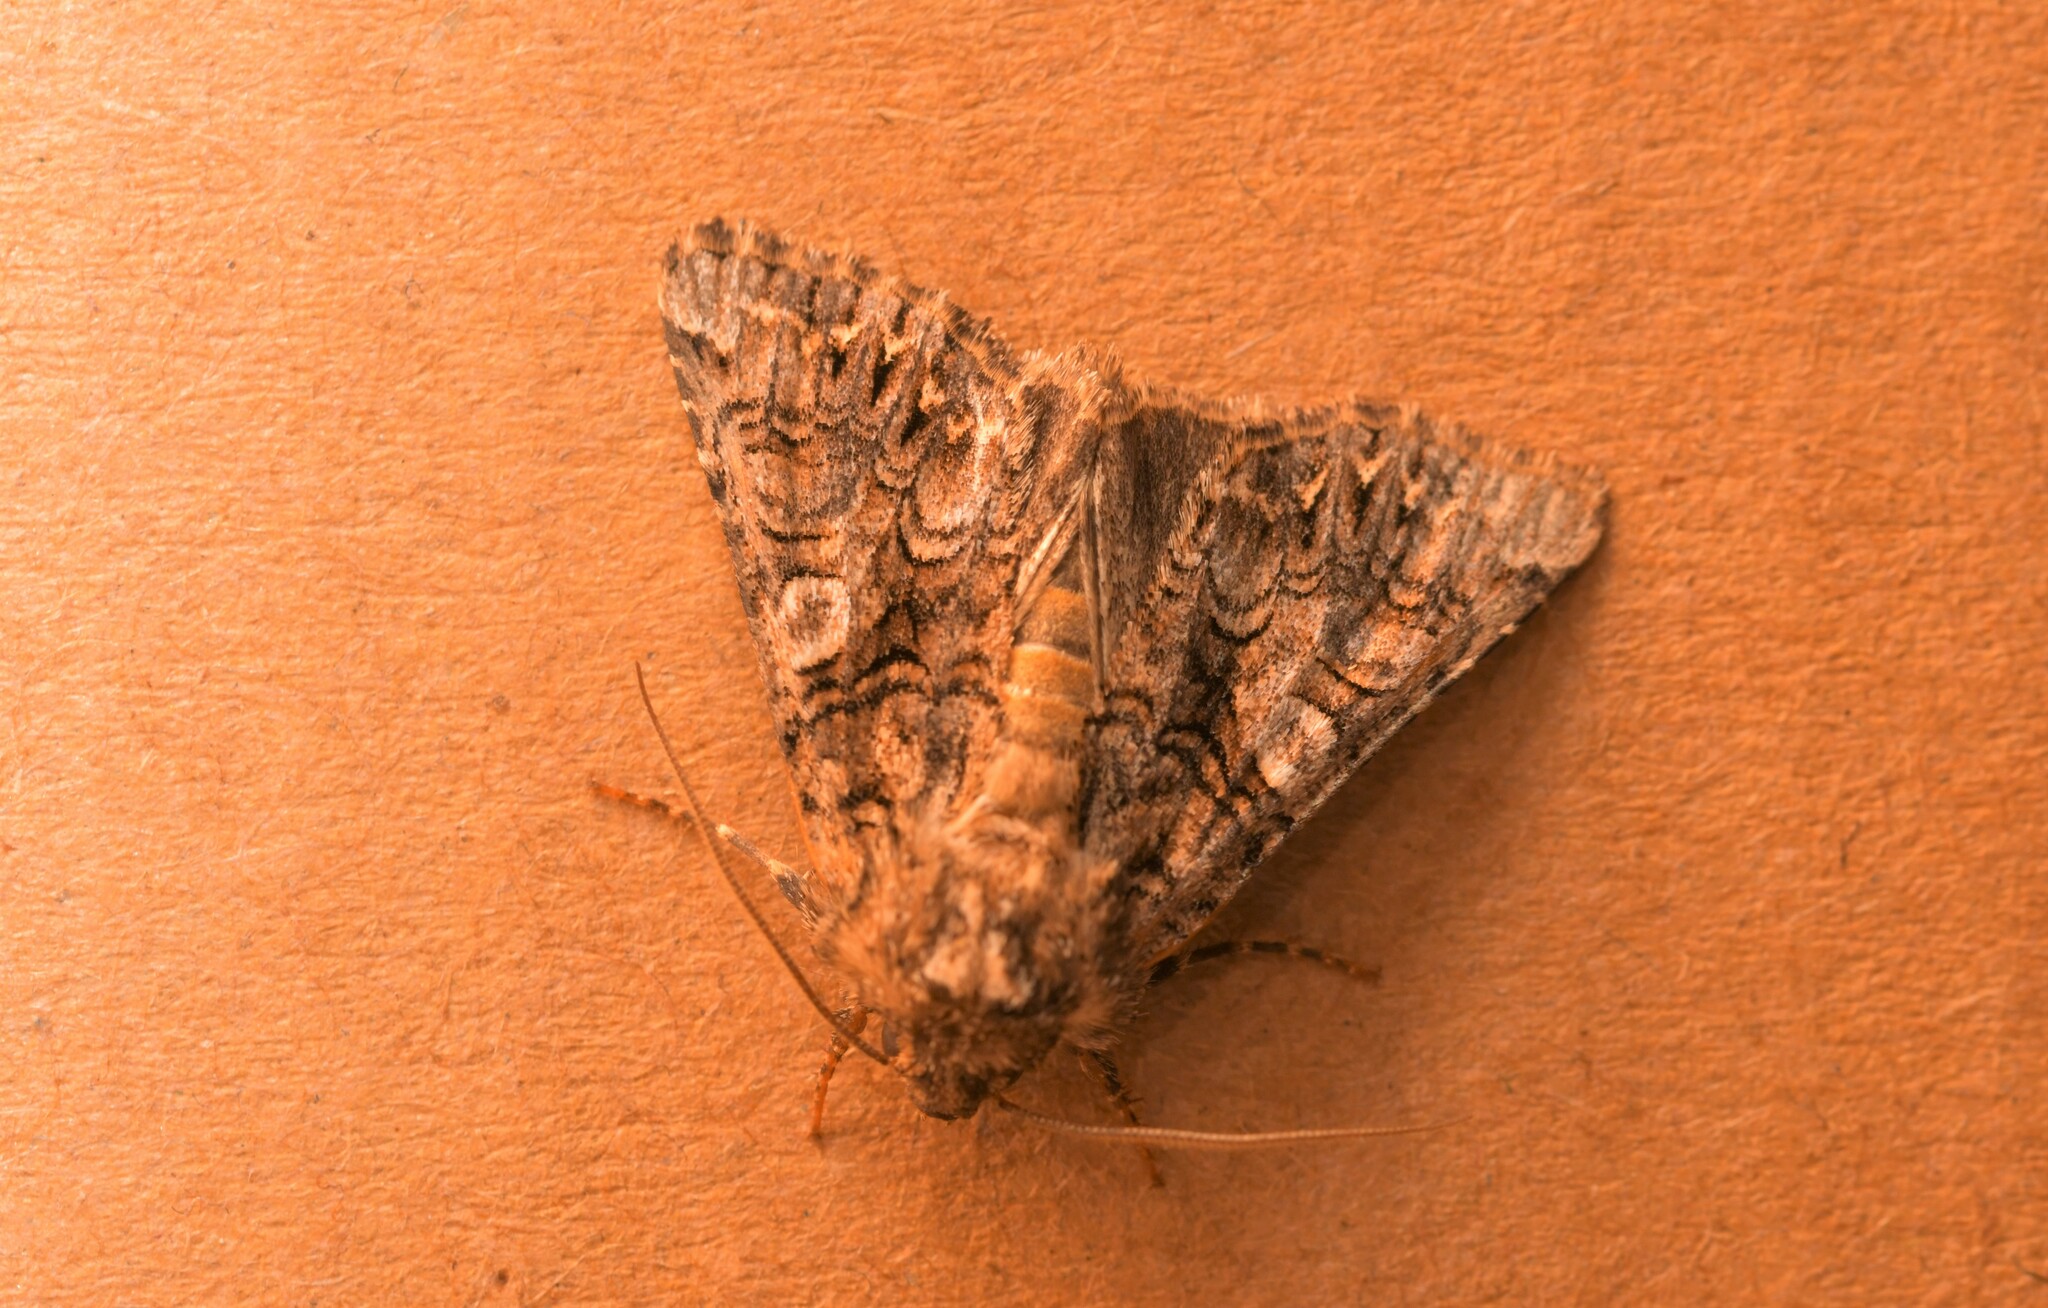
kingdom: Animalia
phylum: Arthropoda
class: Insecta
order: Lepidoptera
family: Noctuidae
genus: Hadena
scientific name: Hadena silenides
